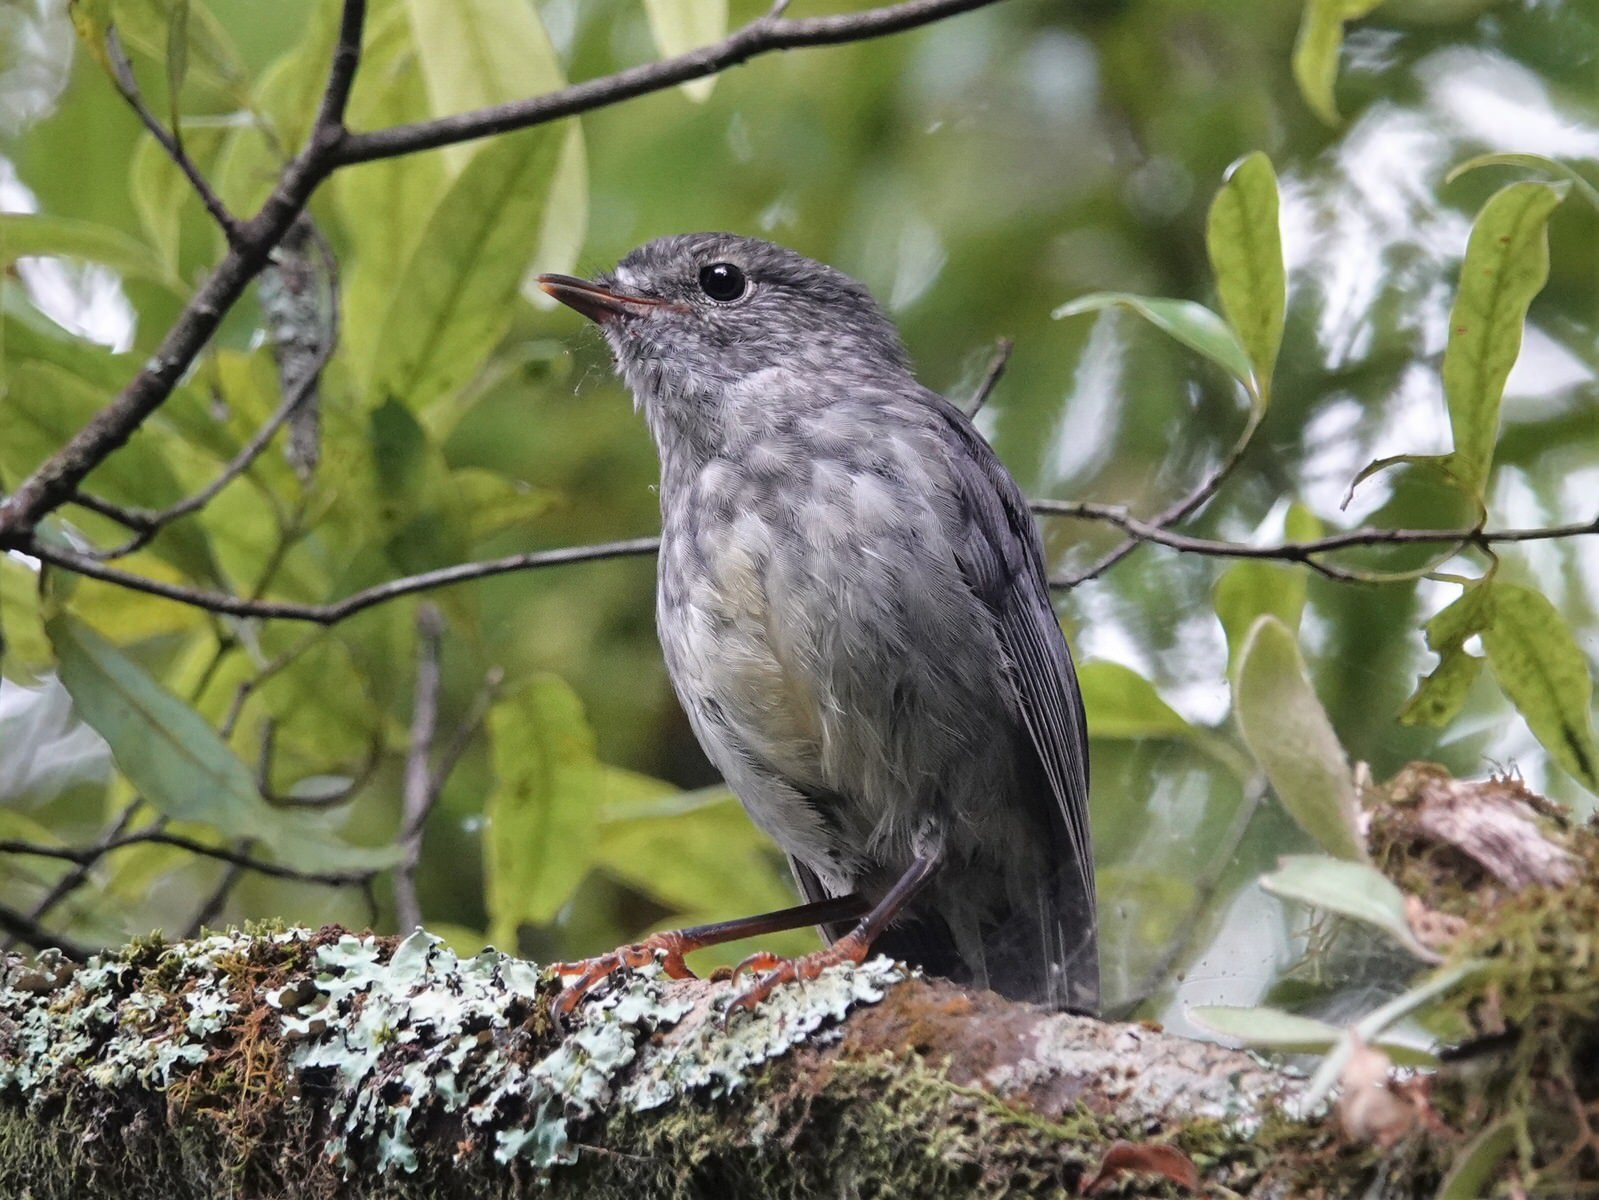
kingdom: Animalia
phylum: Chordata
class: Aves
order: Passeriformes
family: Petroicidae
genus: Petroica
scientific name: Petroica australis
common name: New zealand robin
